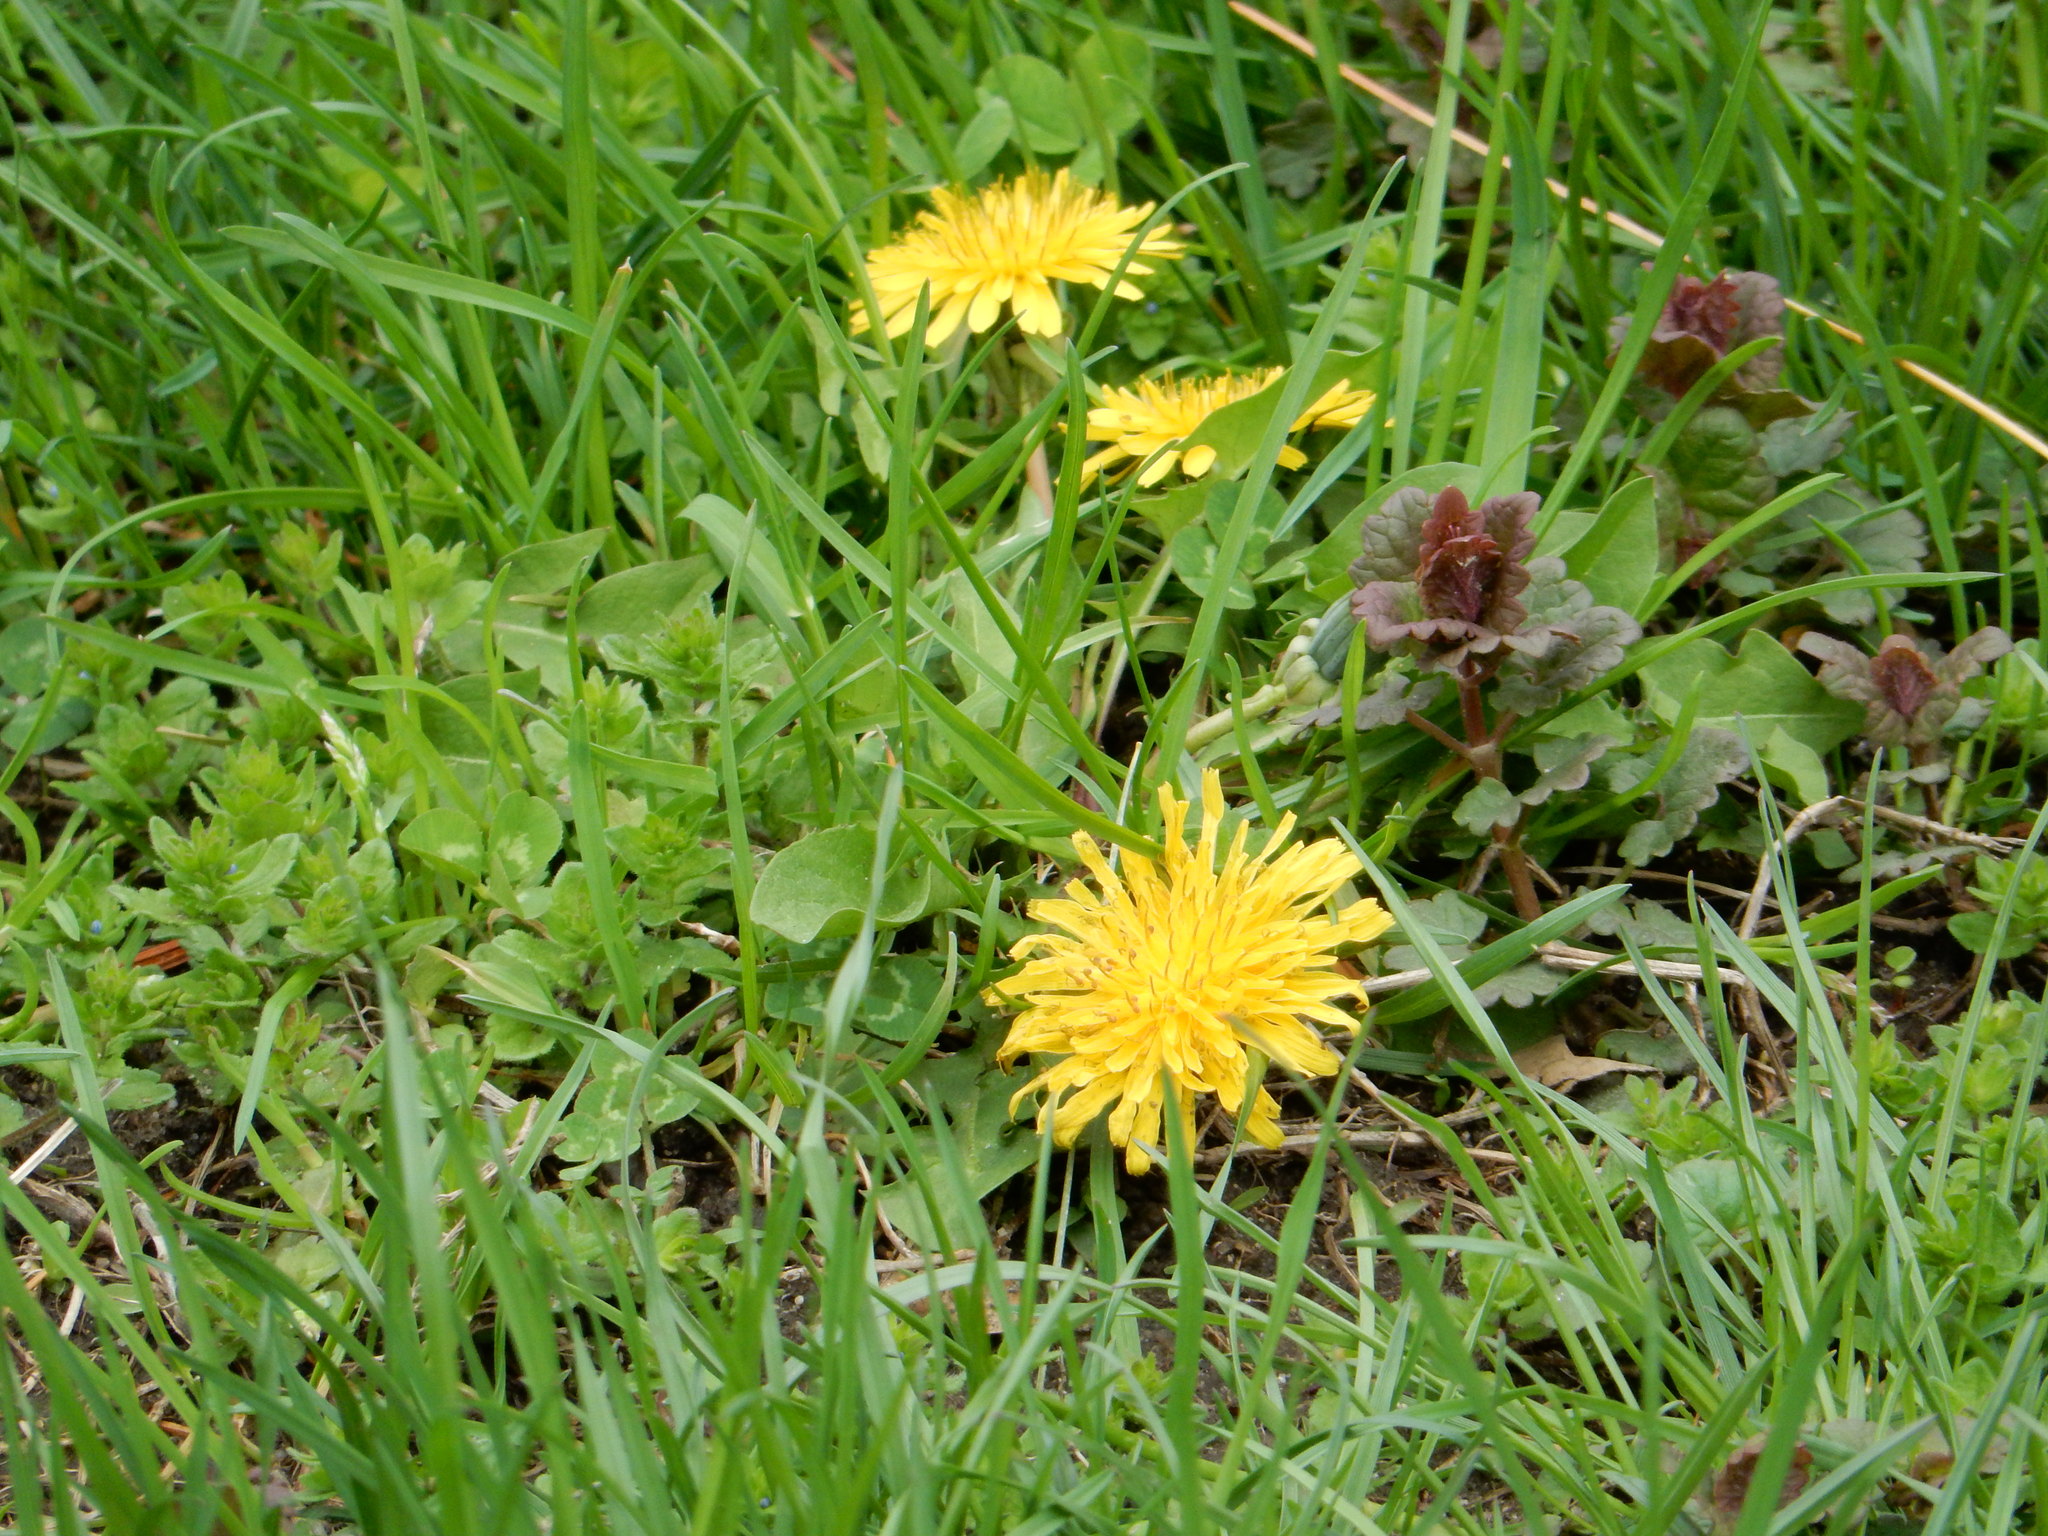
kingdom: Plantae
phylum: Tracheophyta
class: Magnoliopsida
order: Asterales
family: Asteraceae
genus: Taraxacum
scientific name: Taraxacum officinale
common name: Common dandelion
